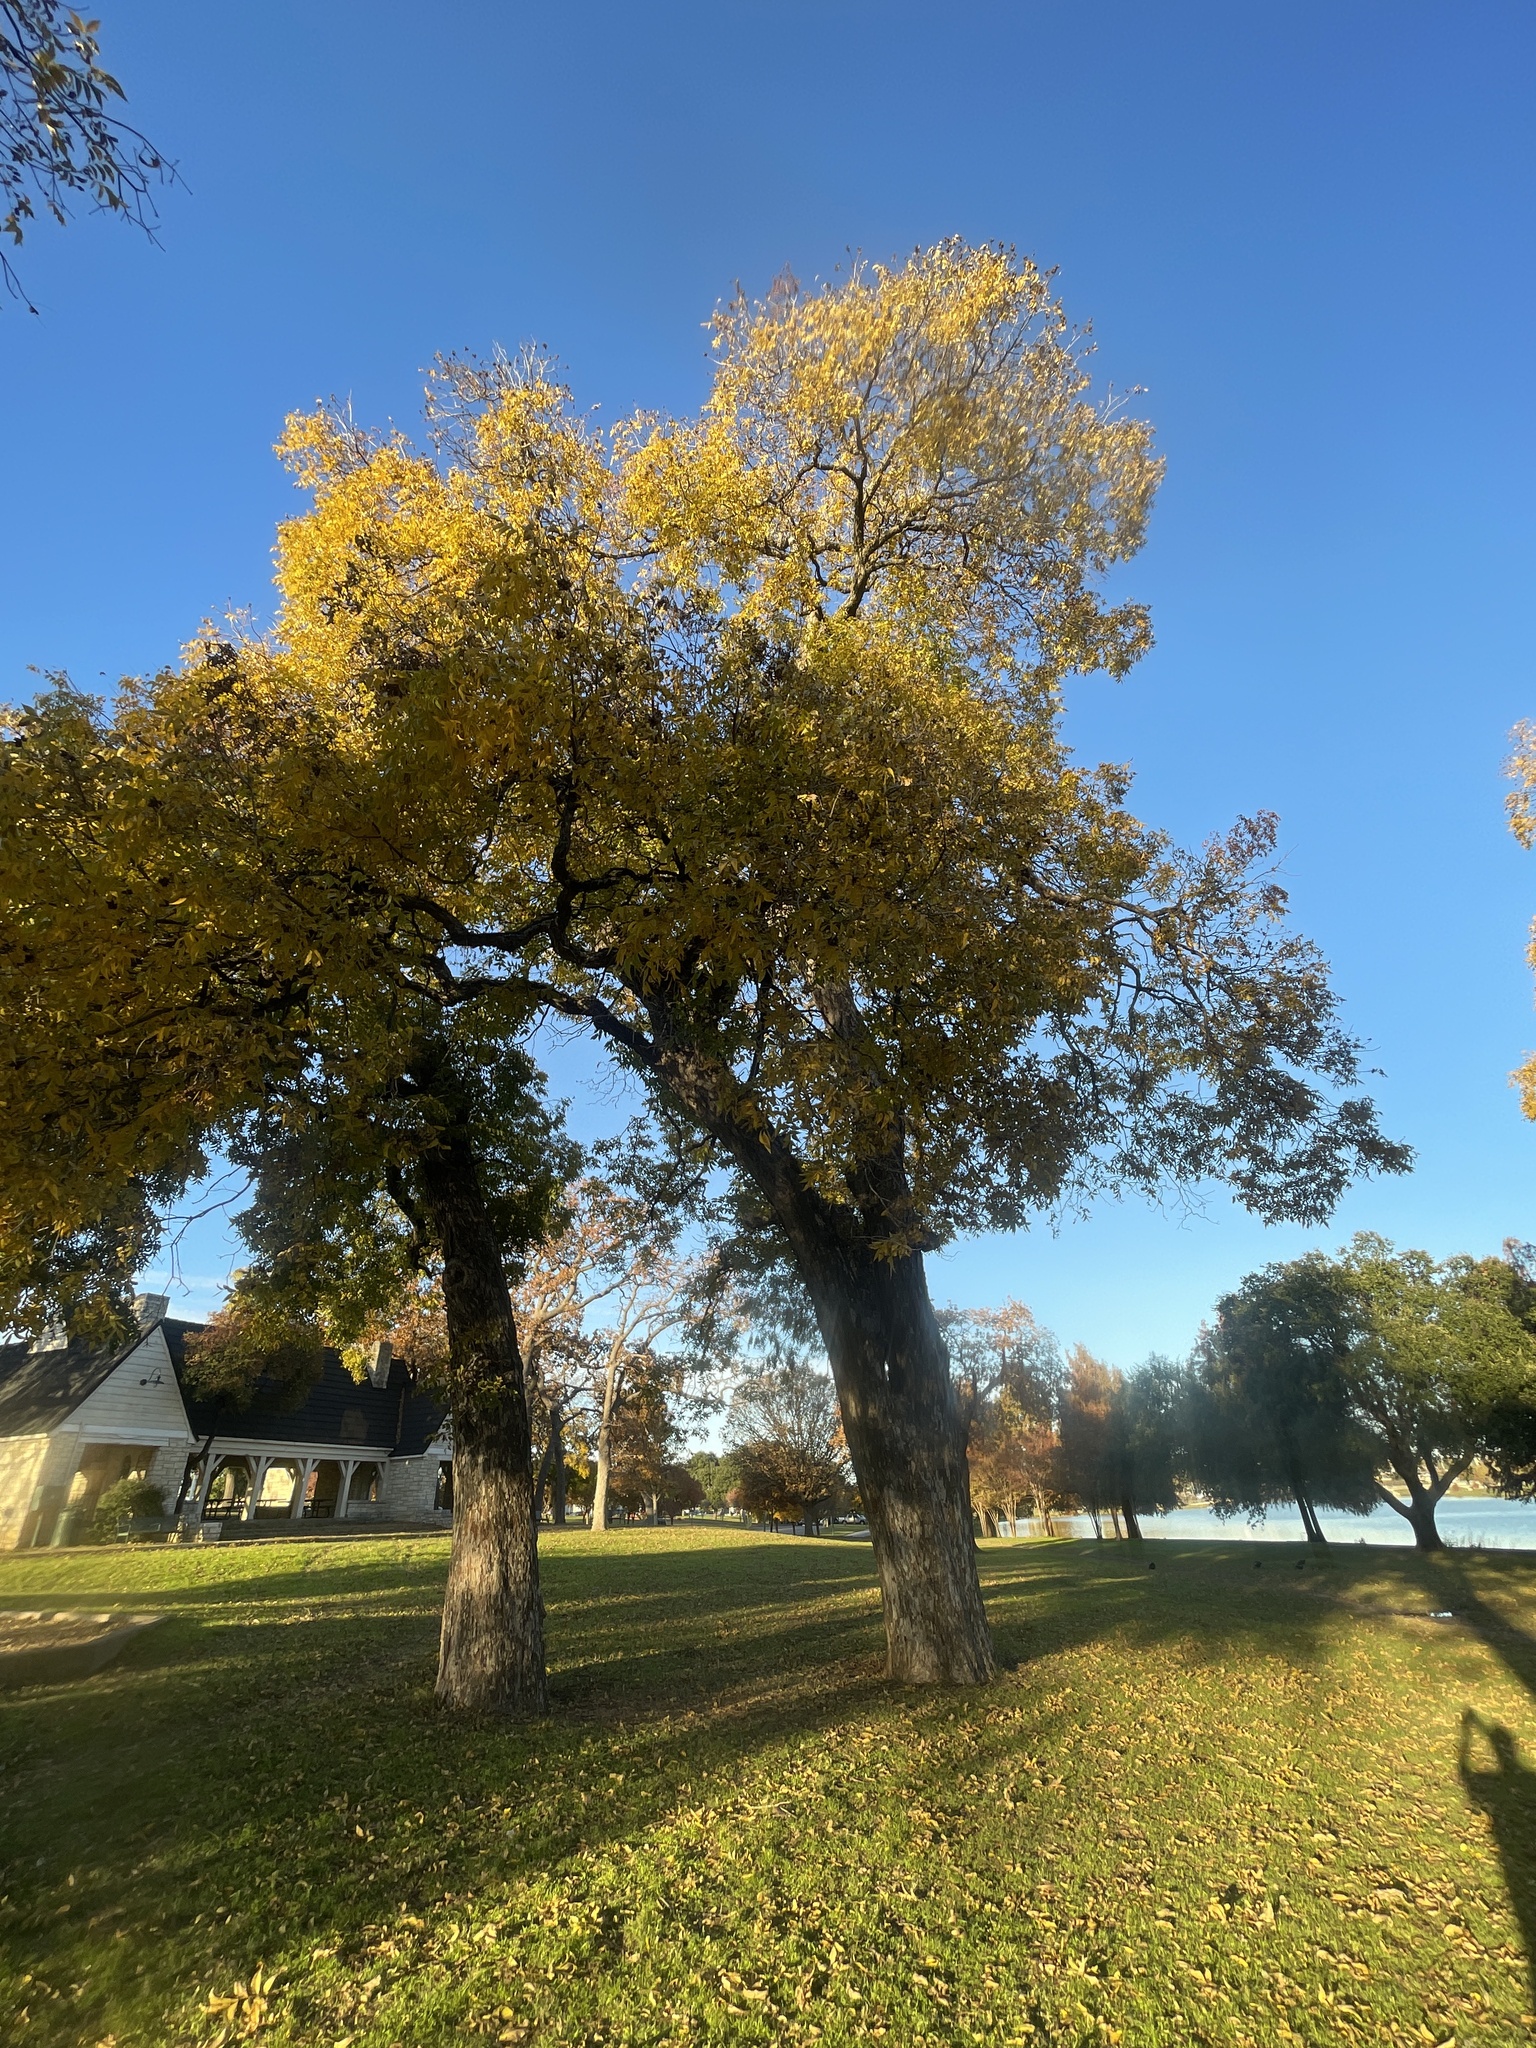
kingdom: Plantae
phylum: Tracheophyta
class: Magnoliopsida
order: Fagales
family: Juglandaceae
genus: Carya
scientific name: Carya illinoinensis
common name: Pecan
